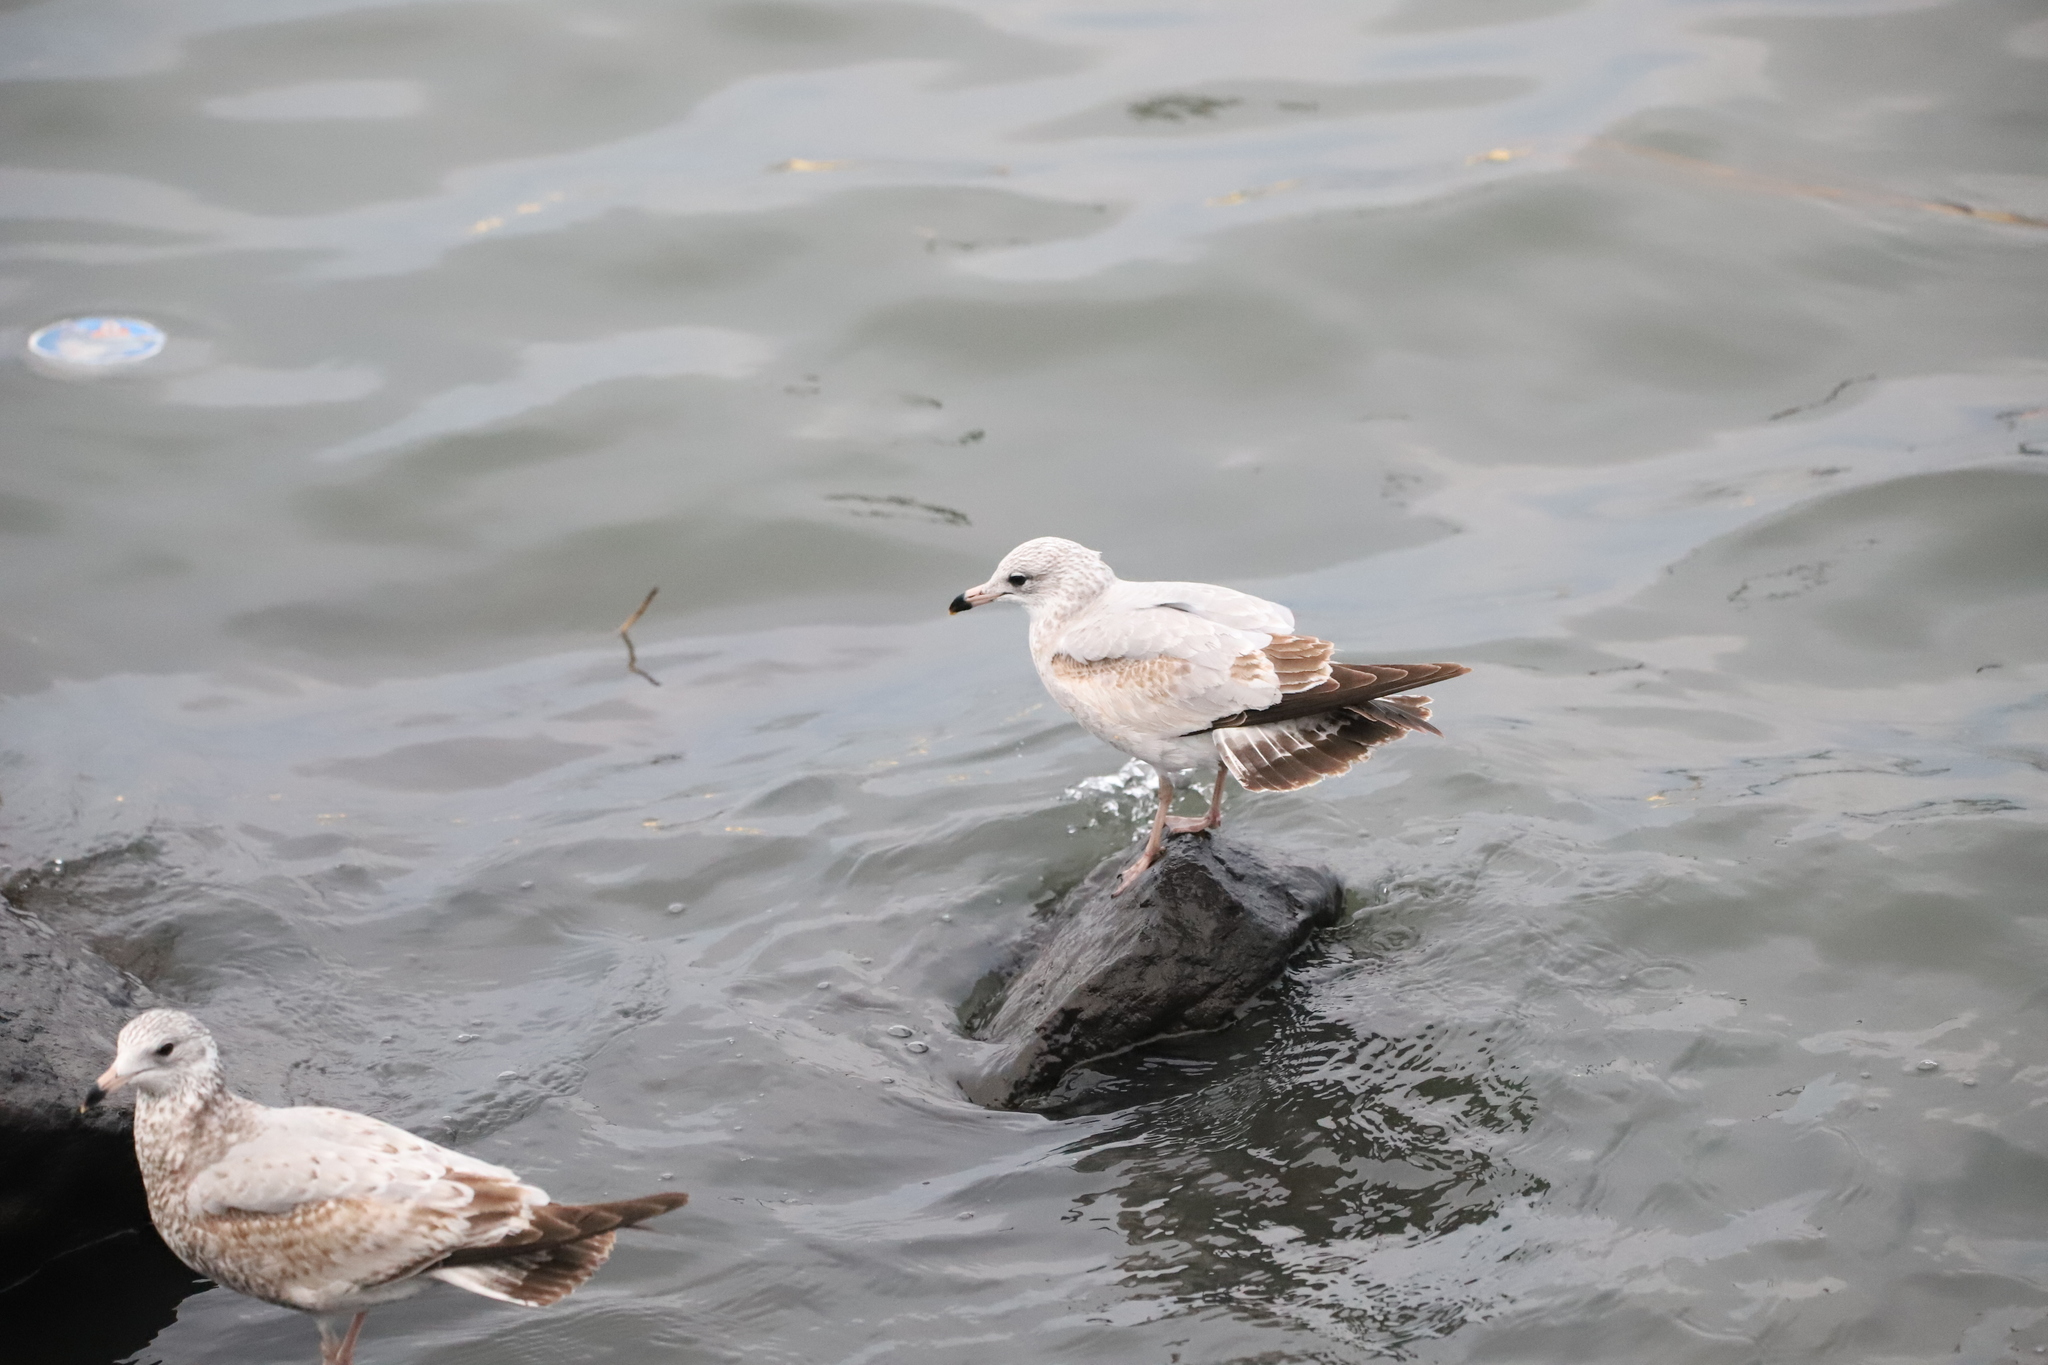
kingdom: Animalia
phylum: Chordata
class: Aves
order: Charadriiformes
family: Laridae
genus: Larus
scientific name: Larus delawarensis
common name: Ring-billed gull
